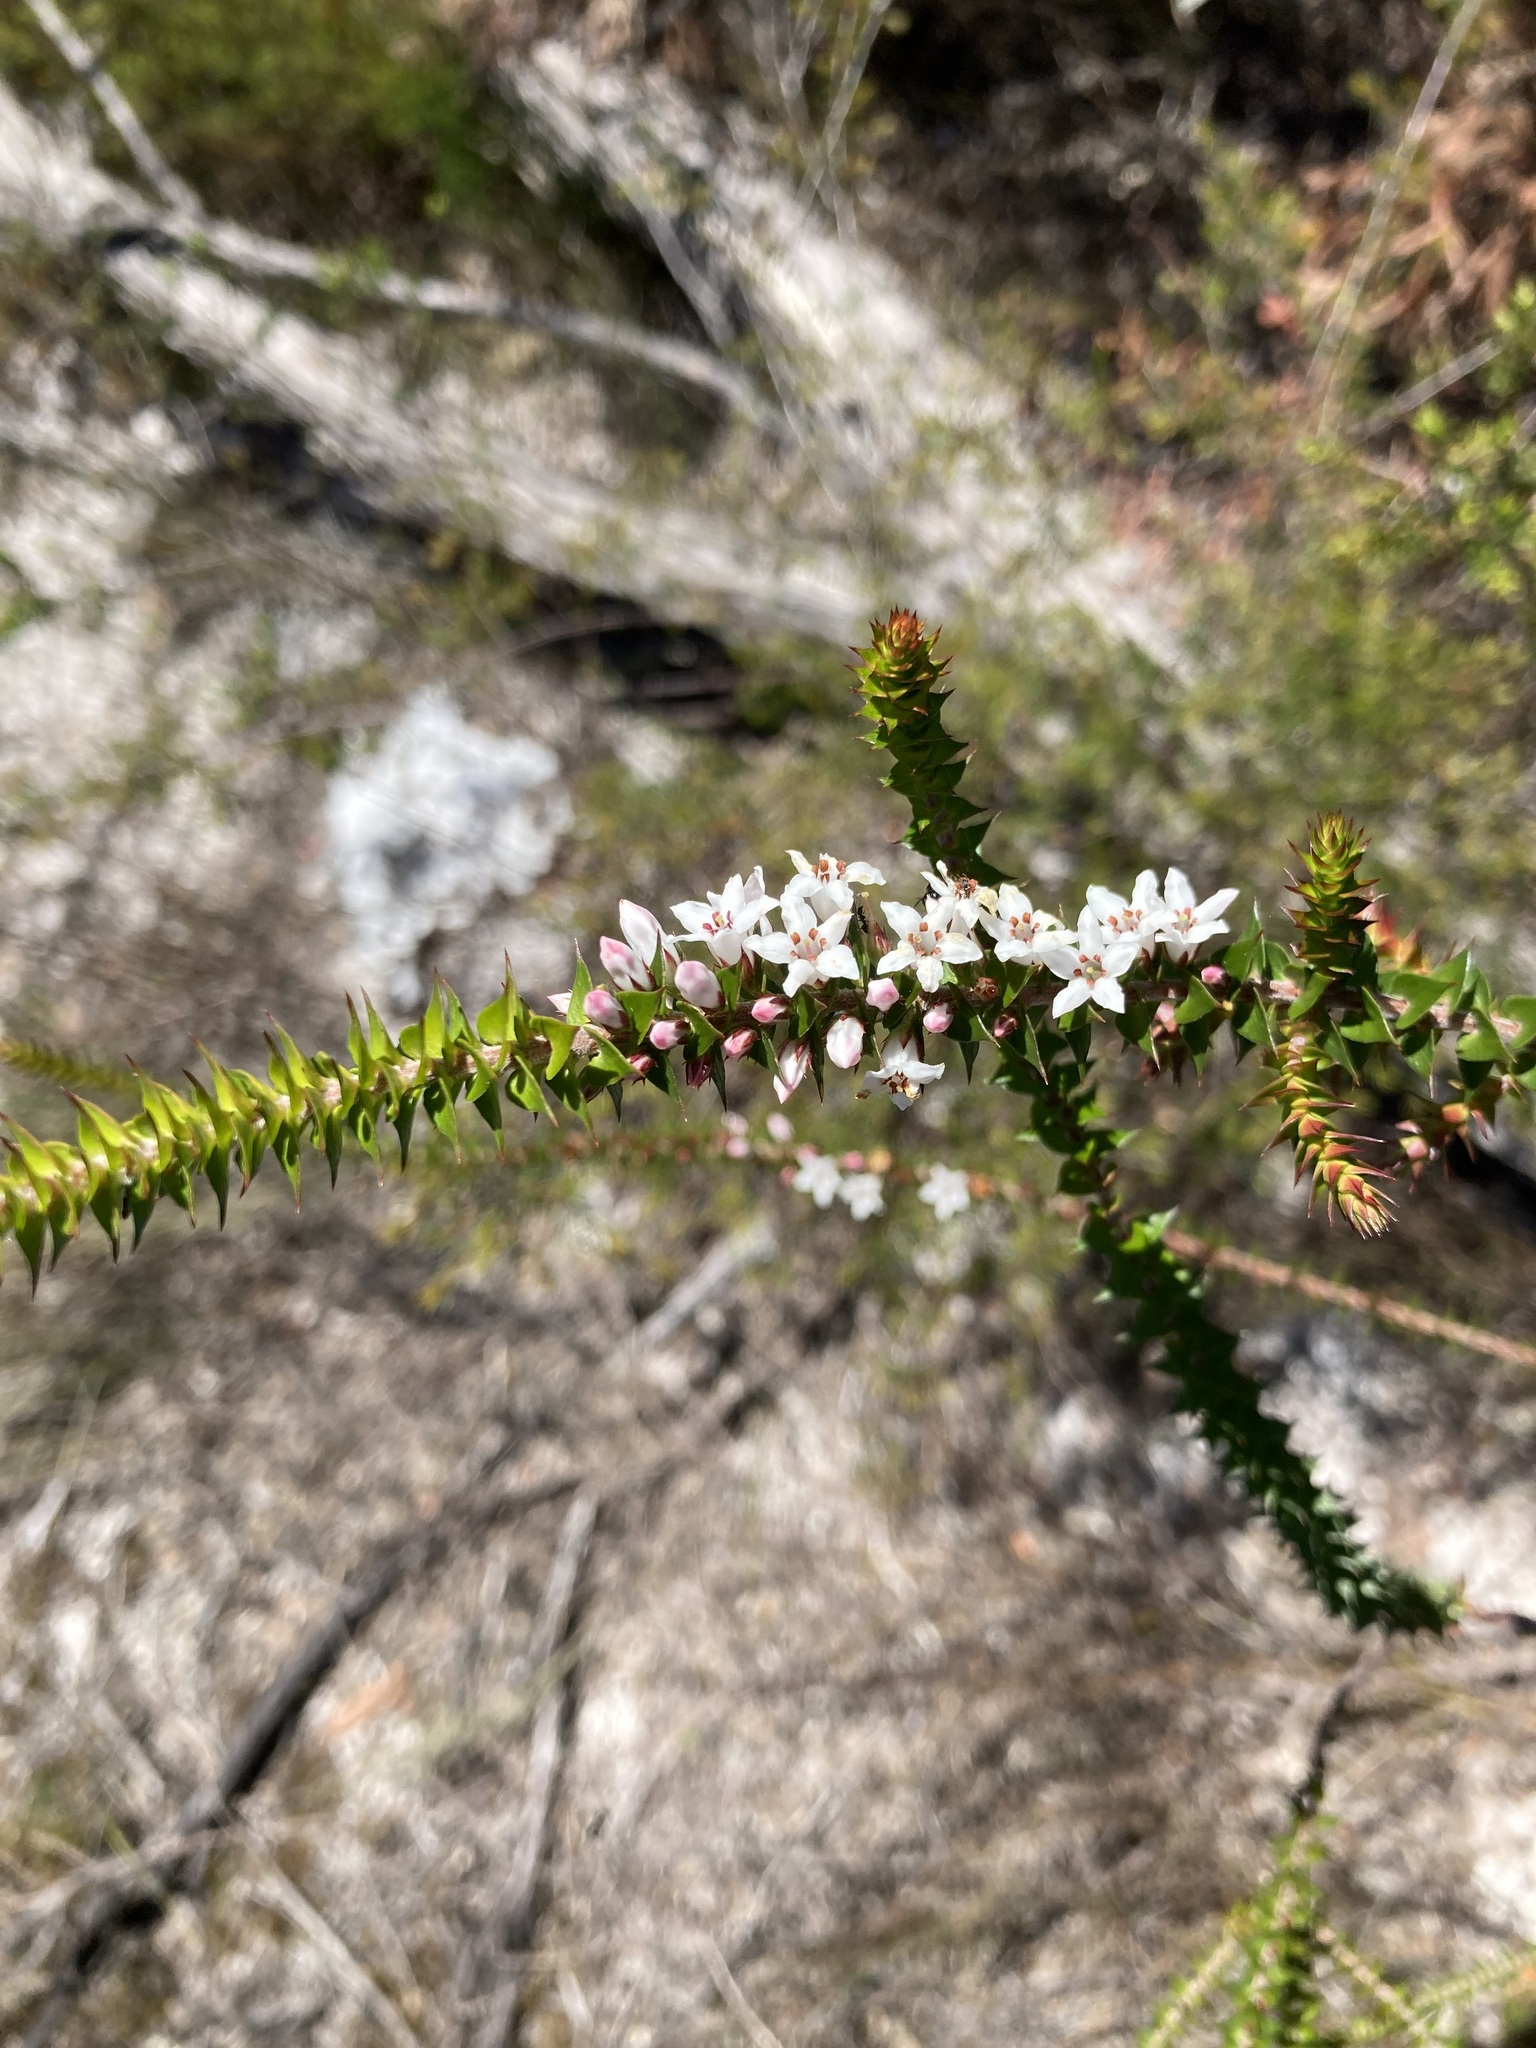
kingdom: Plantae
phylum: Tracheophyta
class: Magnoliopsida
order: Ericales
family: Ericaceae
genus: Epacris
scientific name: Epacris pulchella
